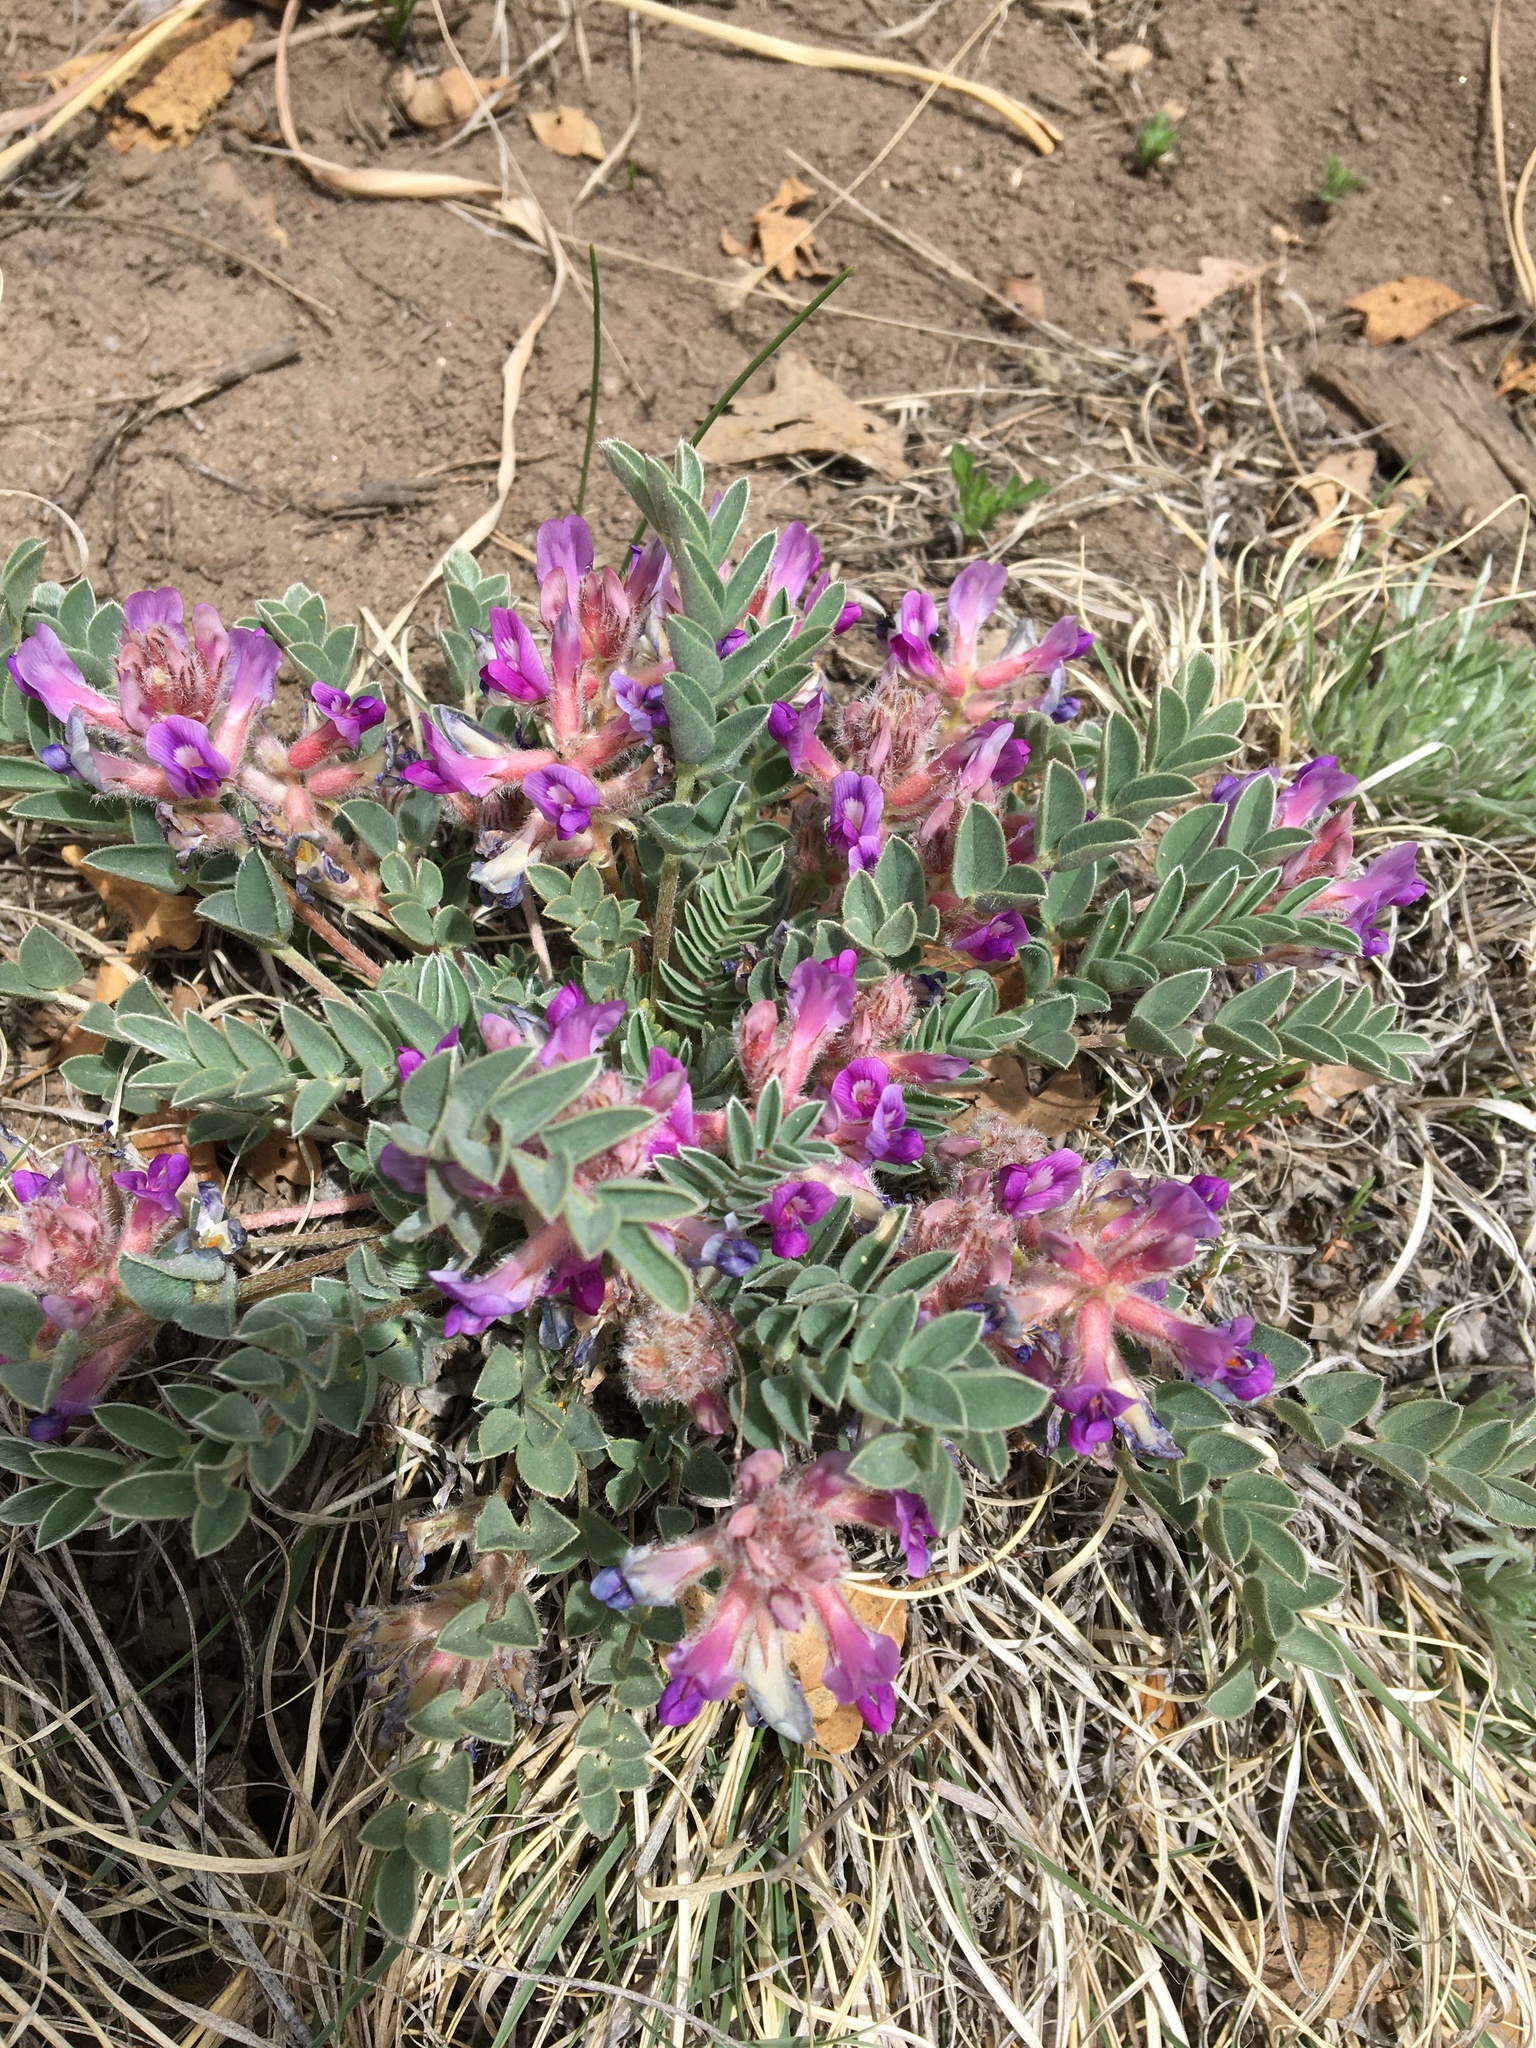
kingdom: Plantae
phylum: Tracheophyta
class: Magnoliopsida
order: Fabales
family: Fabaceae
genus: Astragalus
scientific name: Astragalus shortianus
